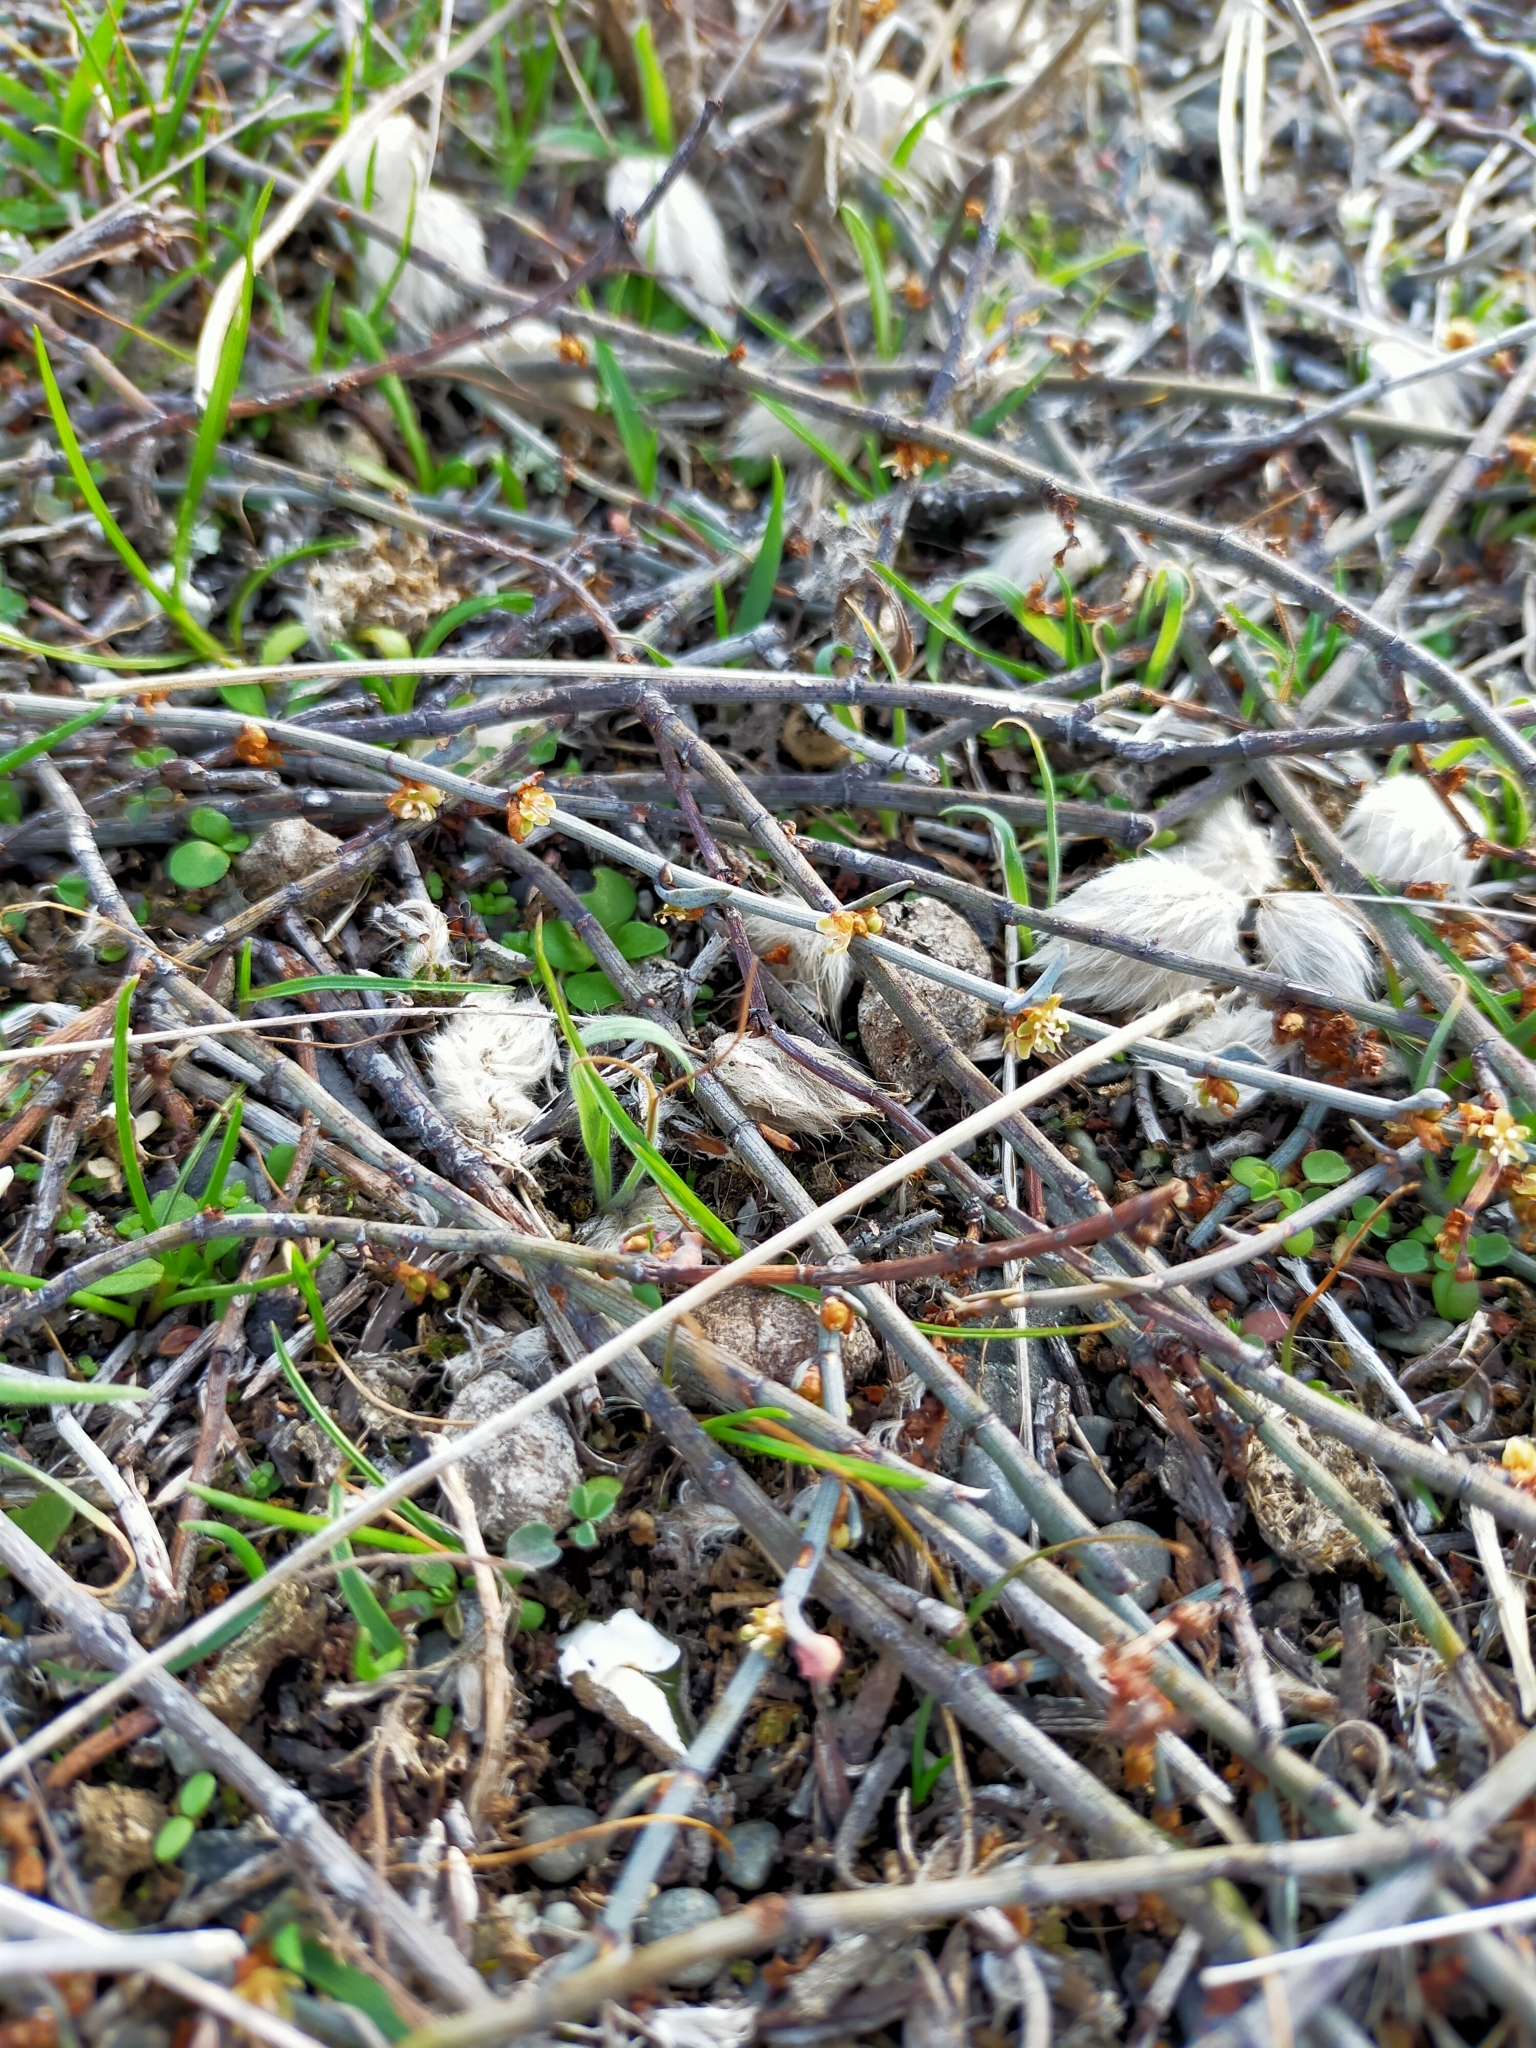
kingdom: Plantae
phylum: Tracheophyta
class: Magnoliopsida
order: Caryophyllales
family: Polygonaceae
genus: Muehlenbeckia
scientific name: Muehlenbeckia ephedroides
